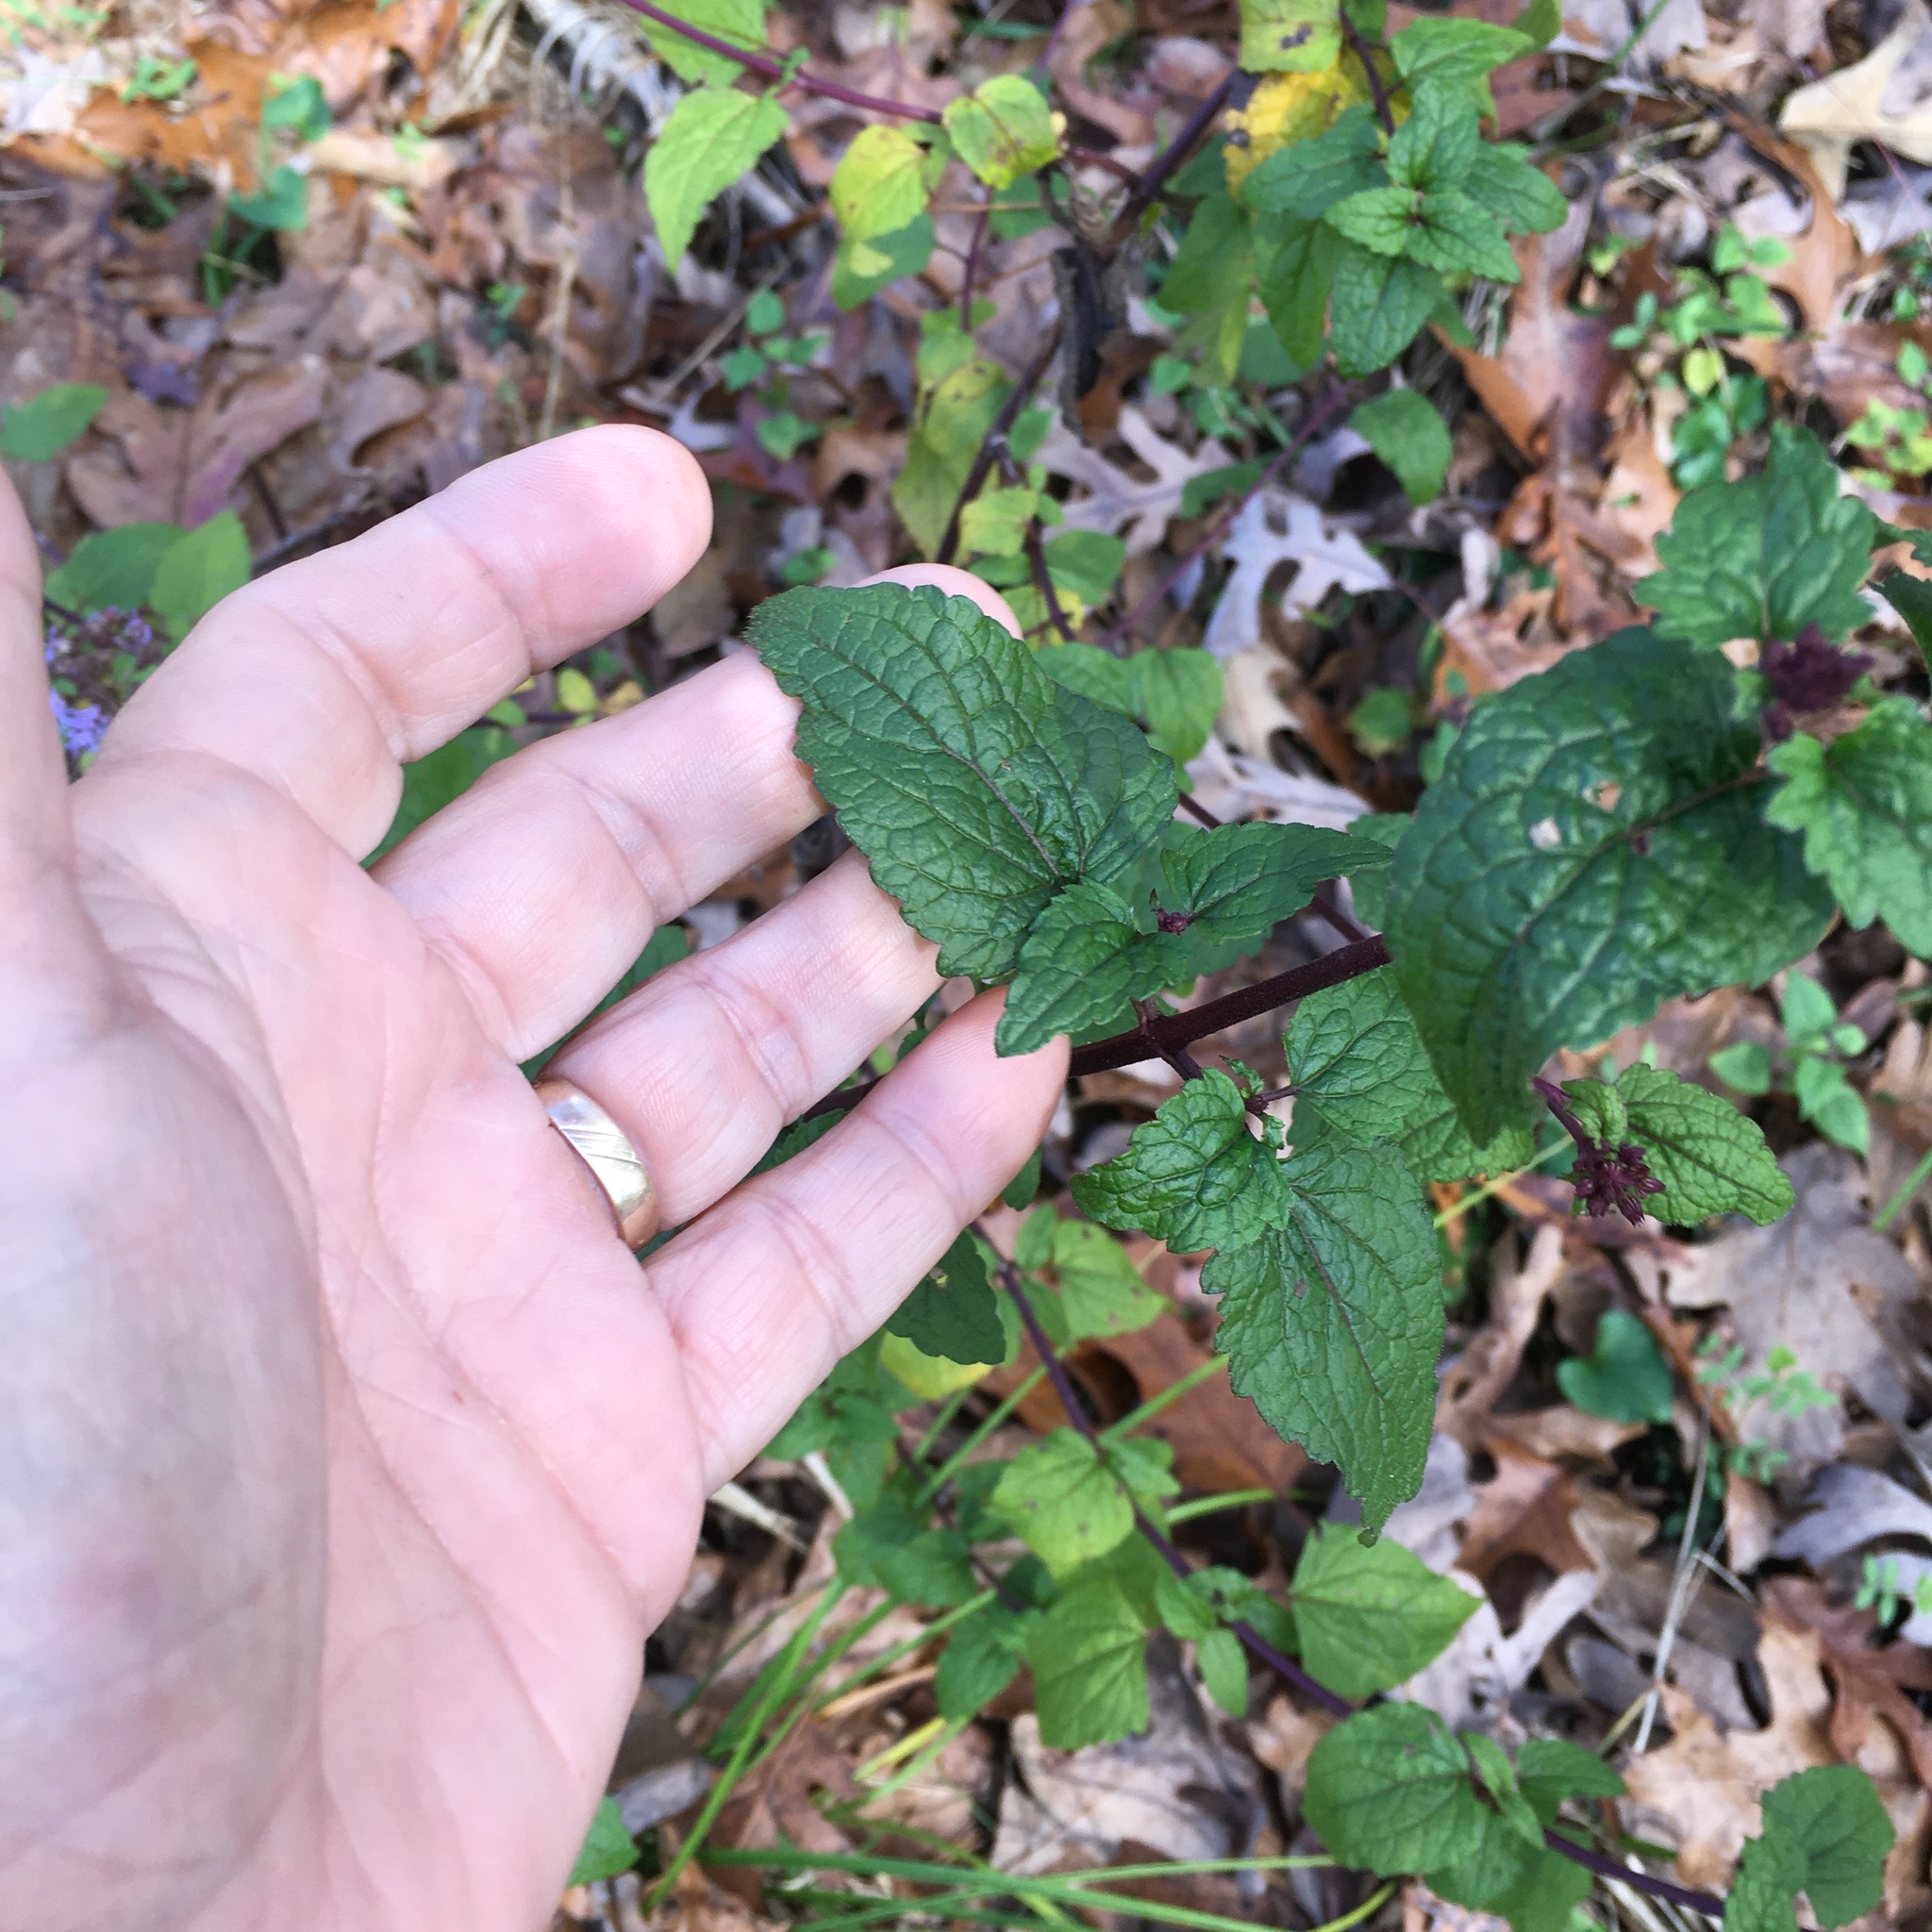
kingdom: Plantae
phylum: Tracheophyta
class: Magnoliopsida
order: Asterales
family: Asteraceae
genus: Conoclinium
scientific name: Conoclinium coelestinum
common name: Blue mistflower
